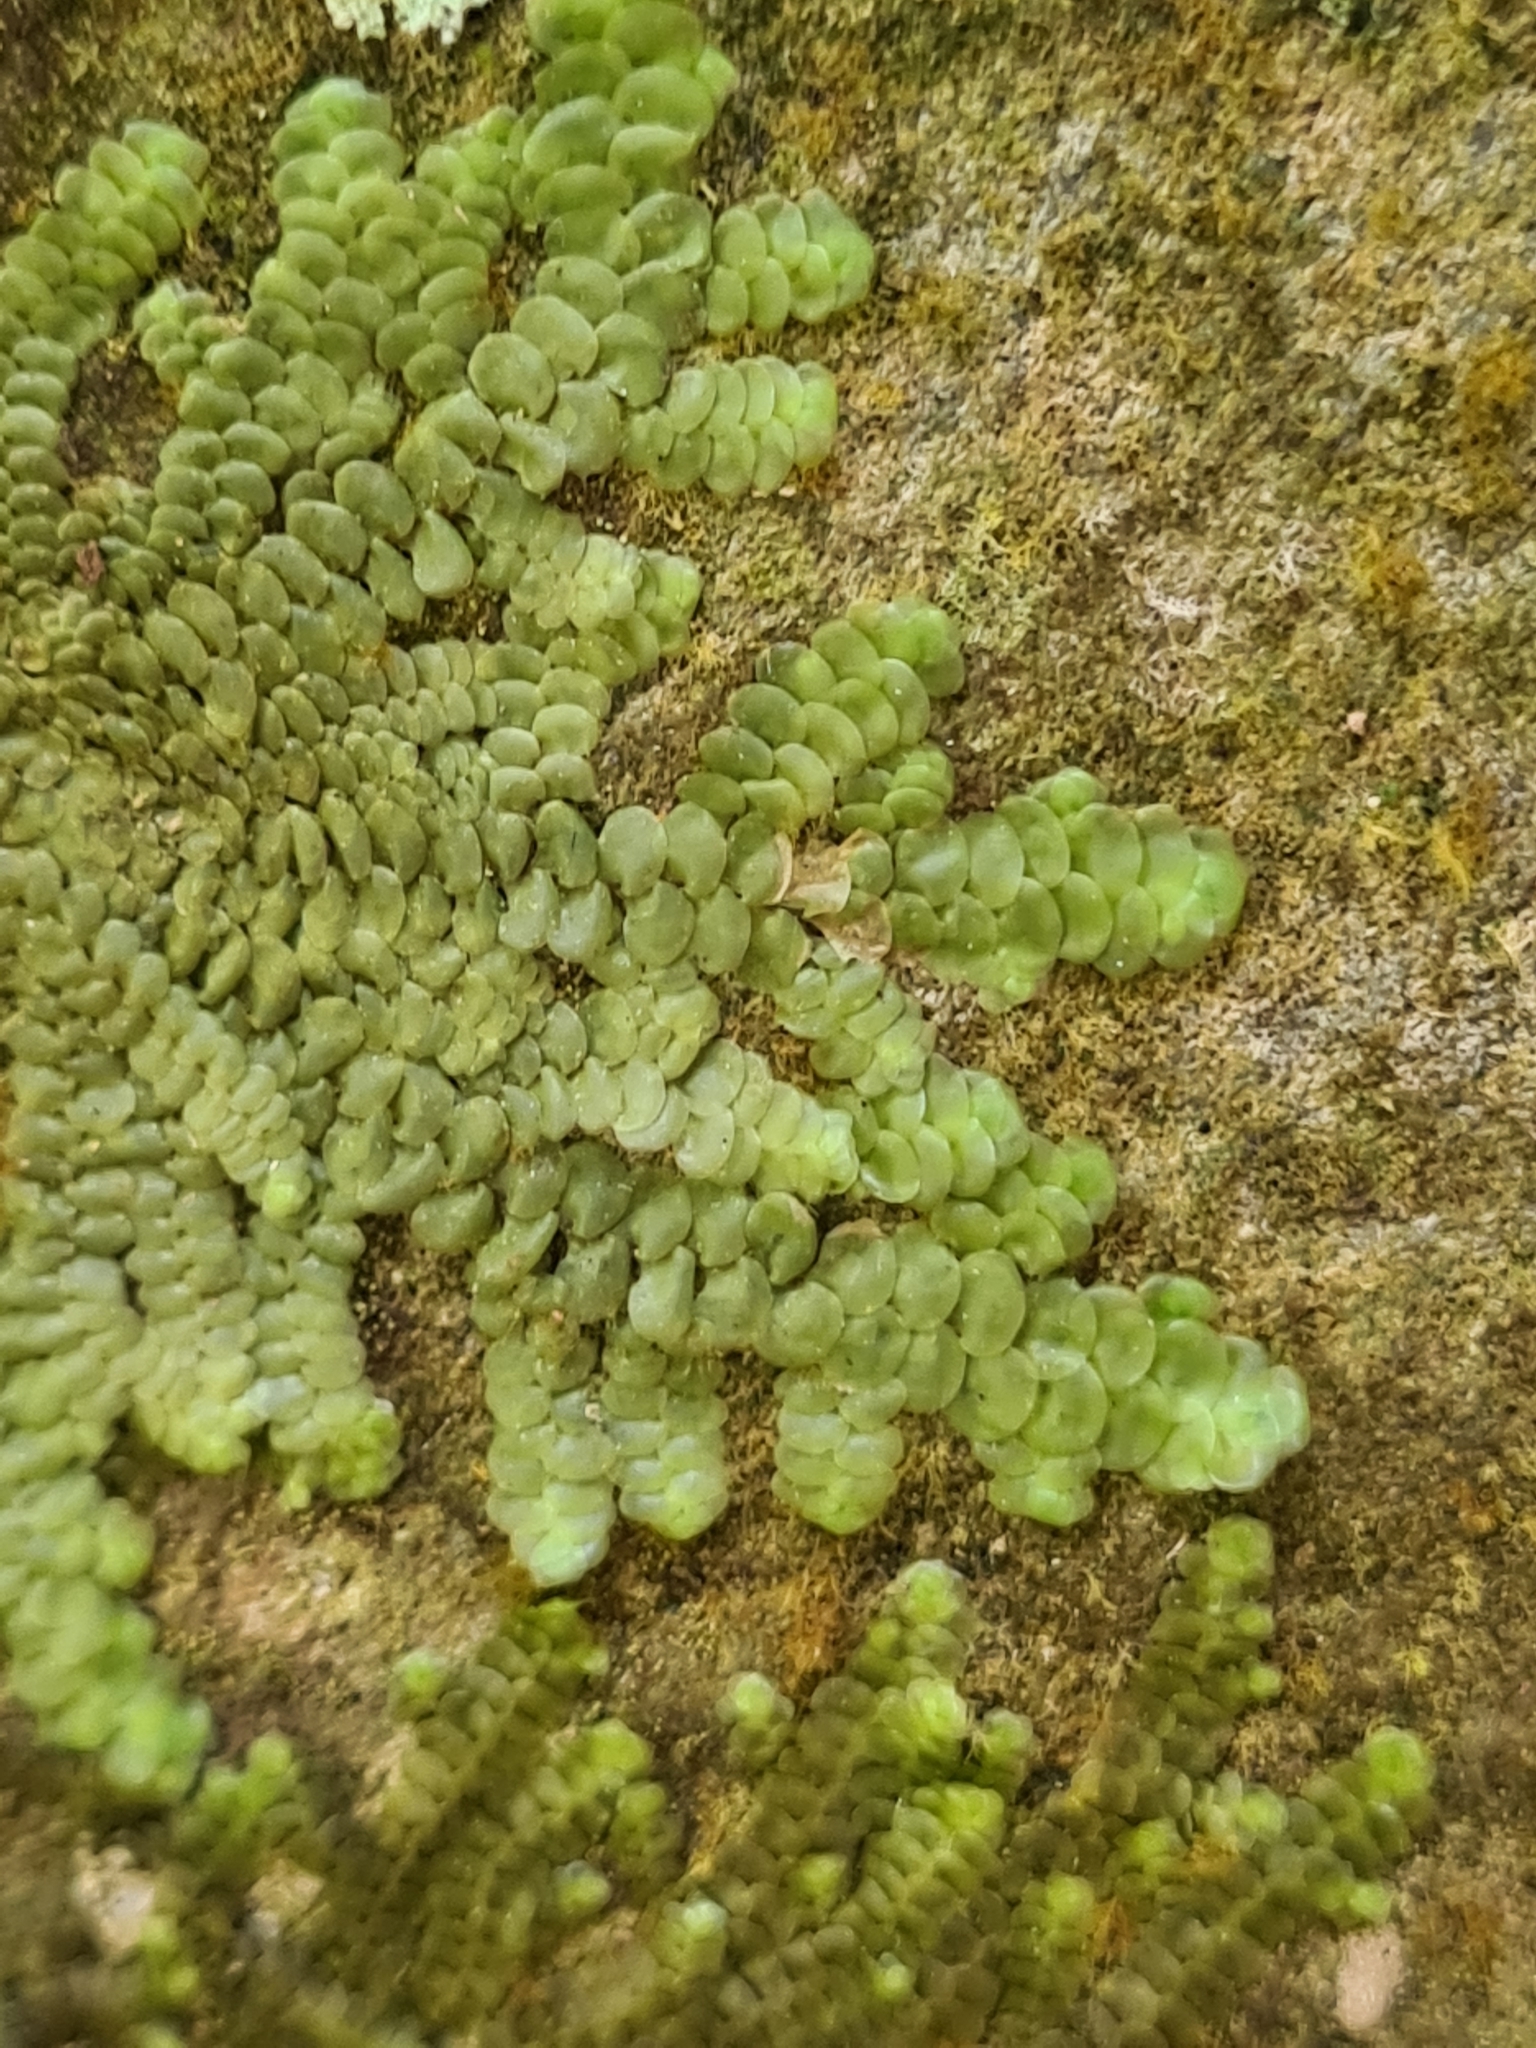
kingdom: Plantae
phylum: Marchantiophyta
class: Jungermanniopsida
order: Porellales
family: Radulaceae
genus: Radula
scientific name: Radula complanata
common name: Flat-leaved scalewort
